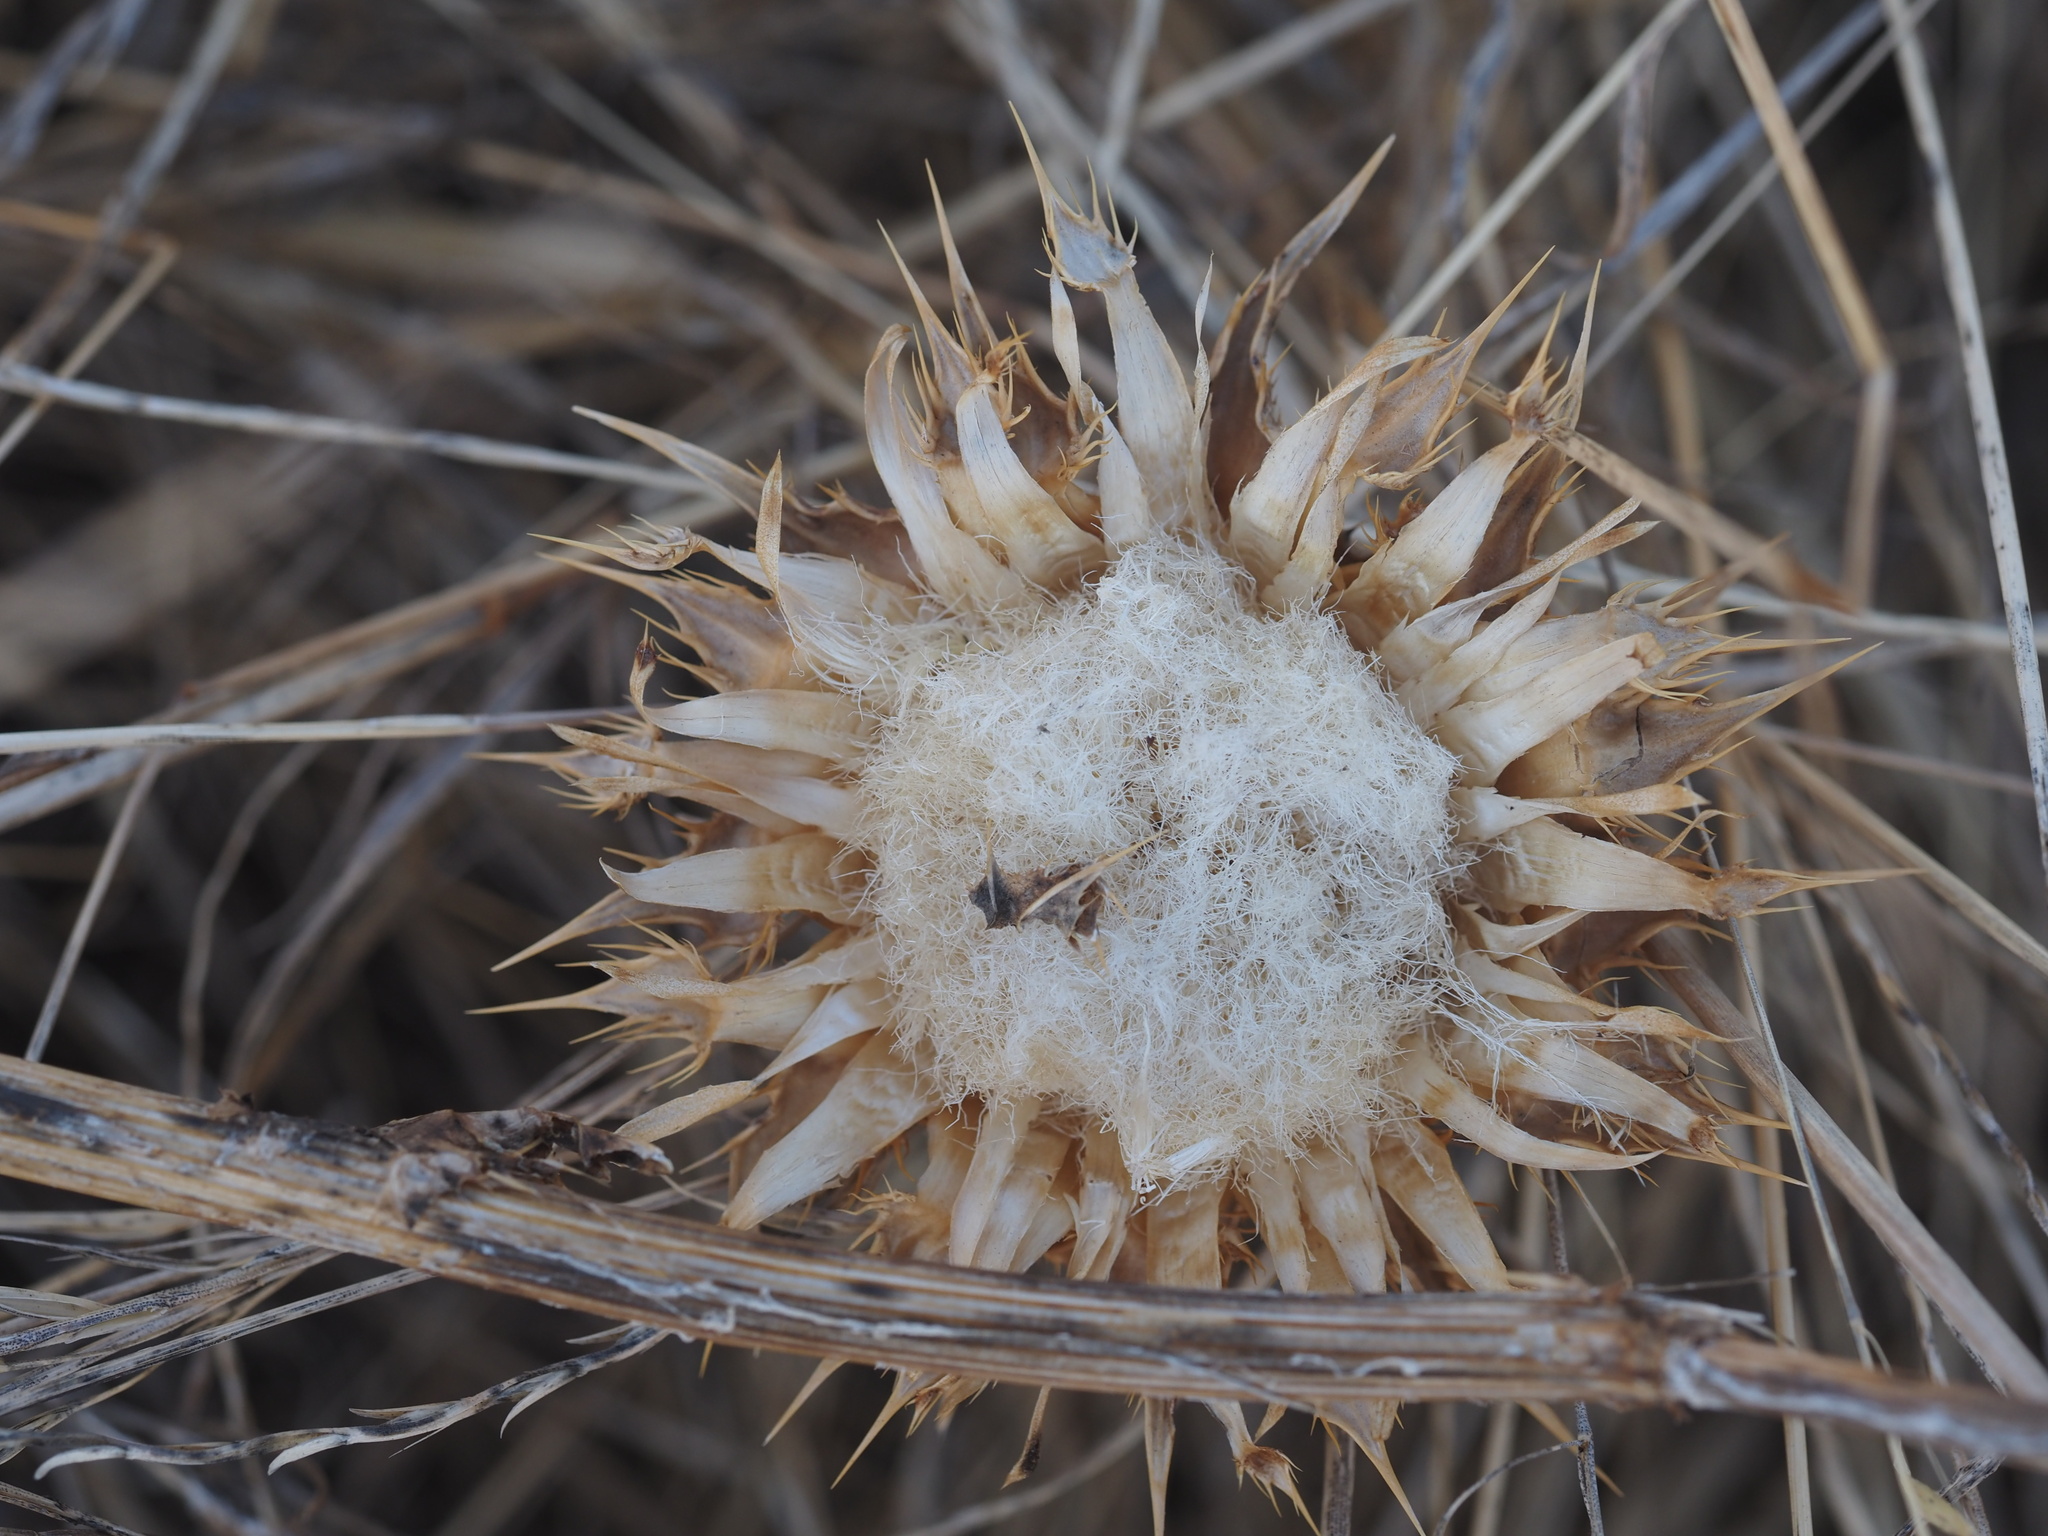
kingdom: Plantae
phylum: Tracheophyta
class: Magnoliopsida
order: Asterales
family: Asteraceae
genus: Silybum
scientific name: Silybum marianum
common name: Milk thistle
